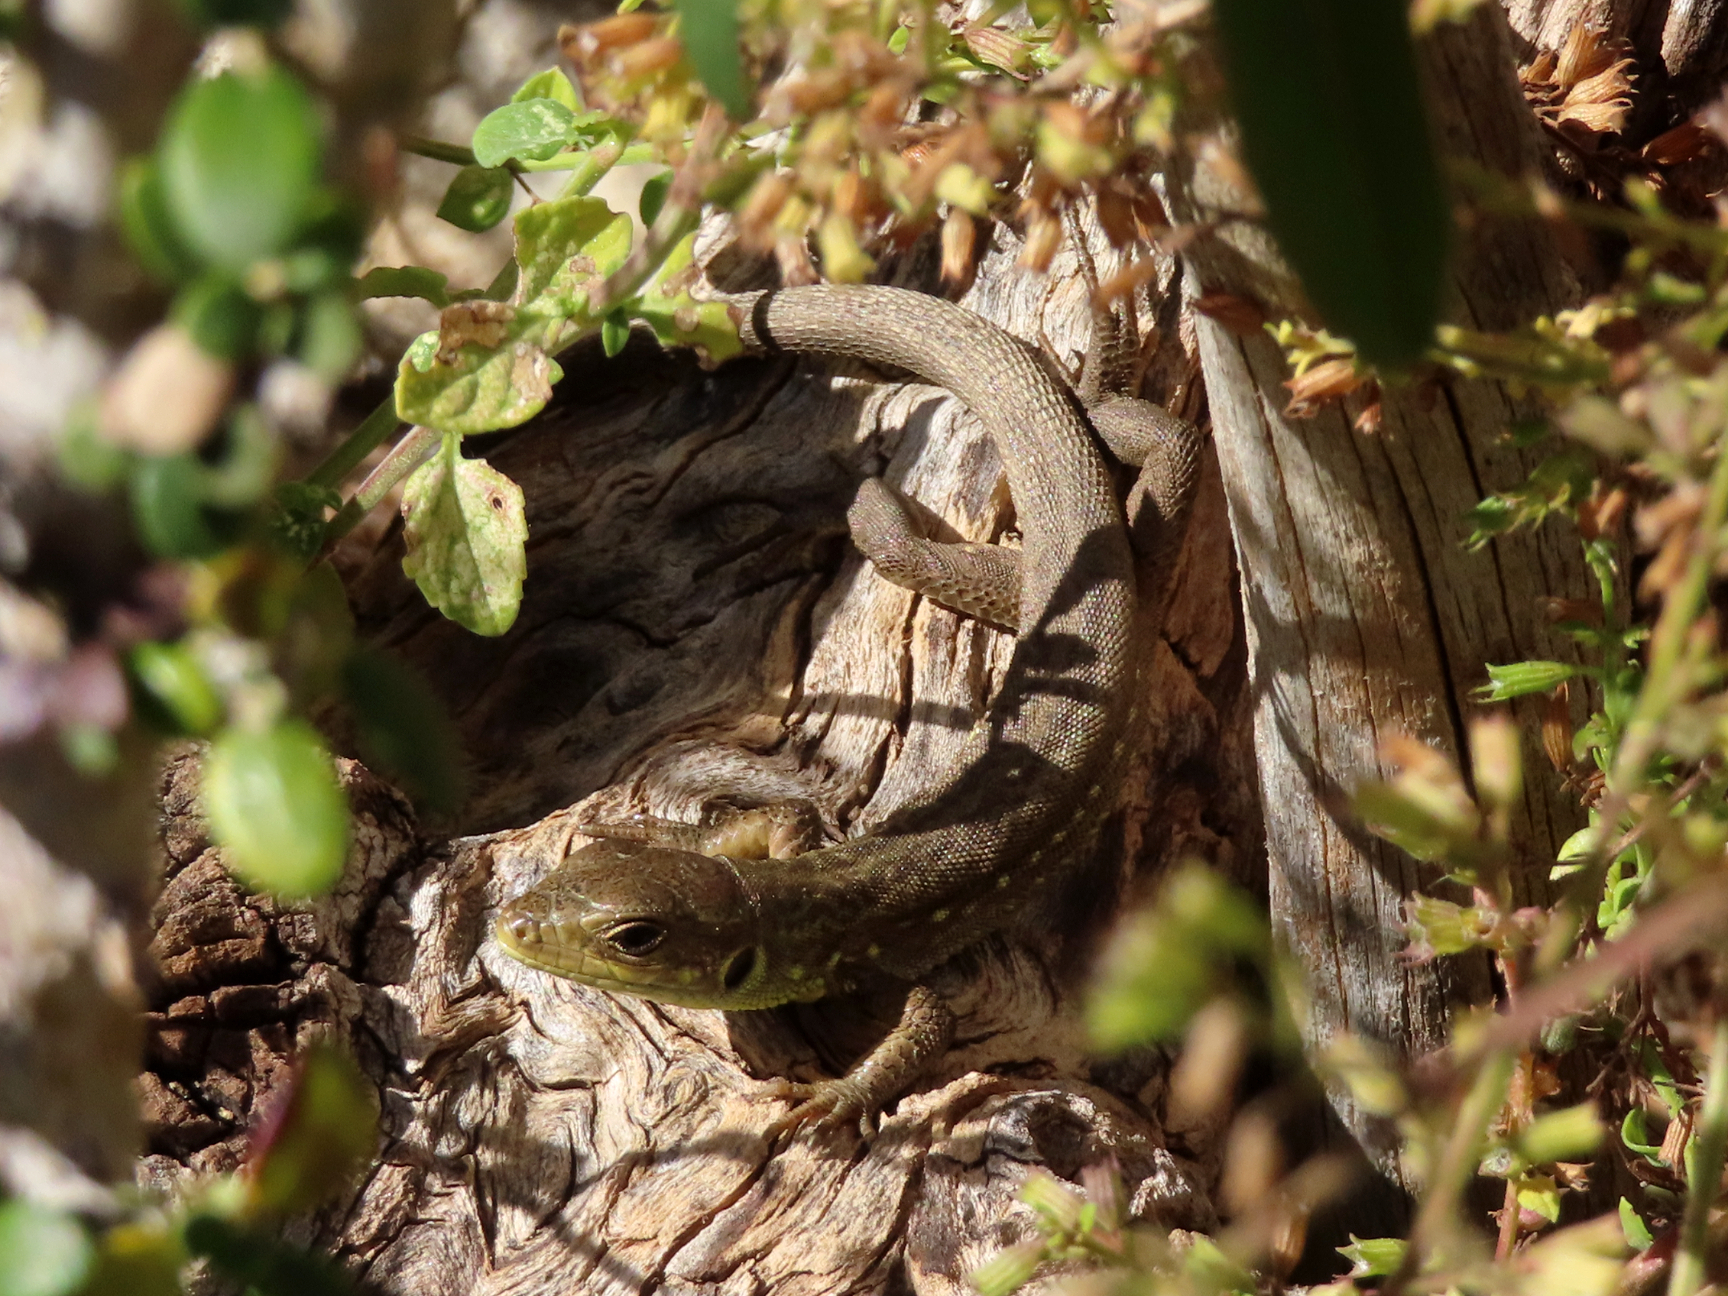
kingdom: Animalia
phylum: Chordata
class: Squamata
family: Lacertidae
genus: Lacerta
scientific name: Lacerta trilineata
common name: Balkan green lizard
